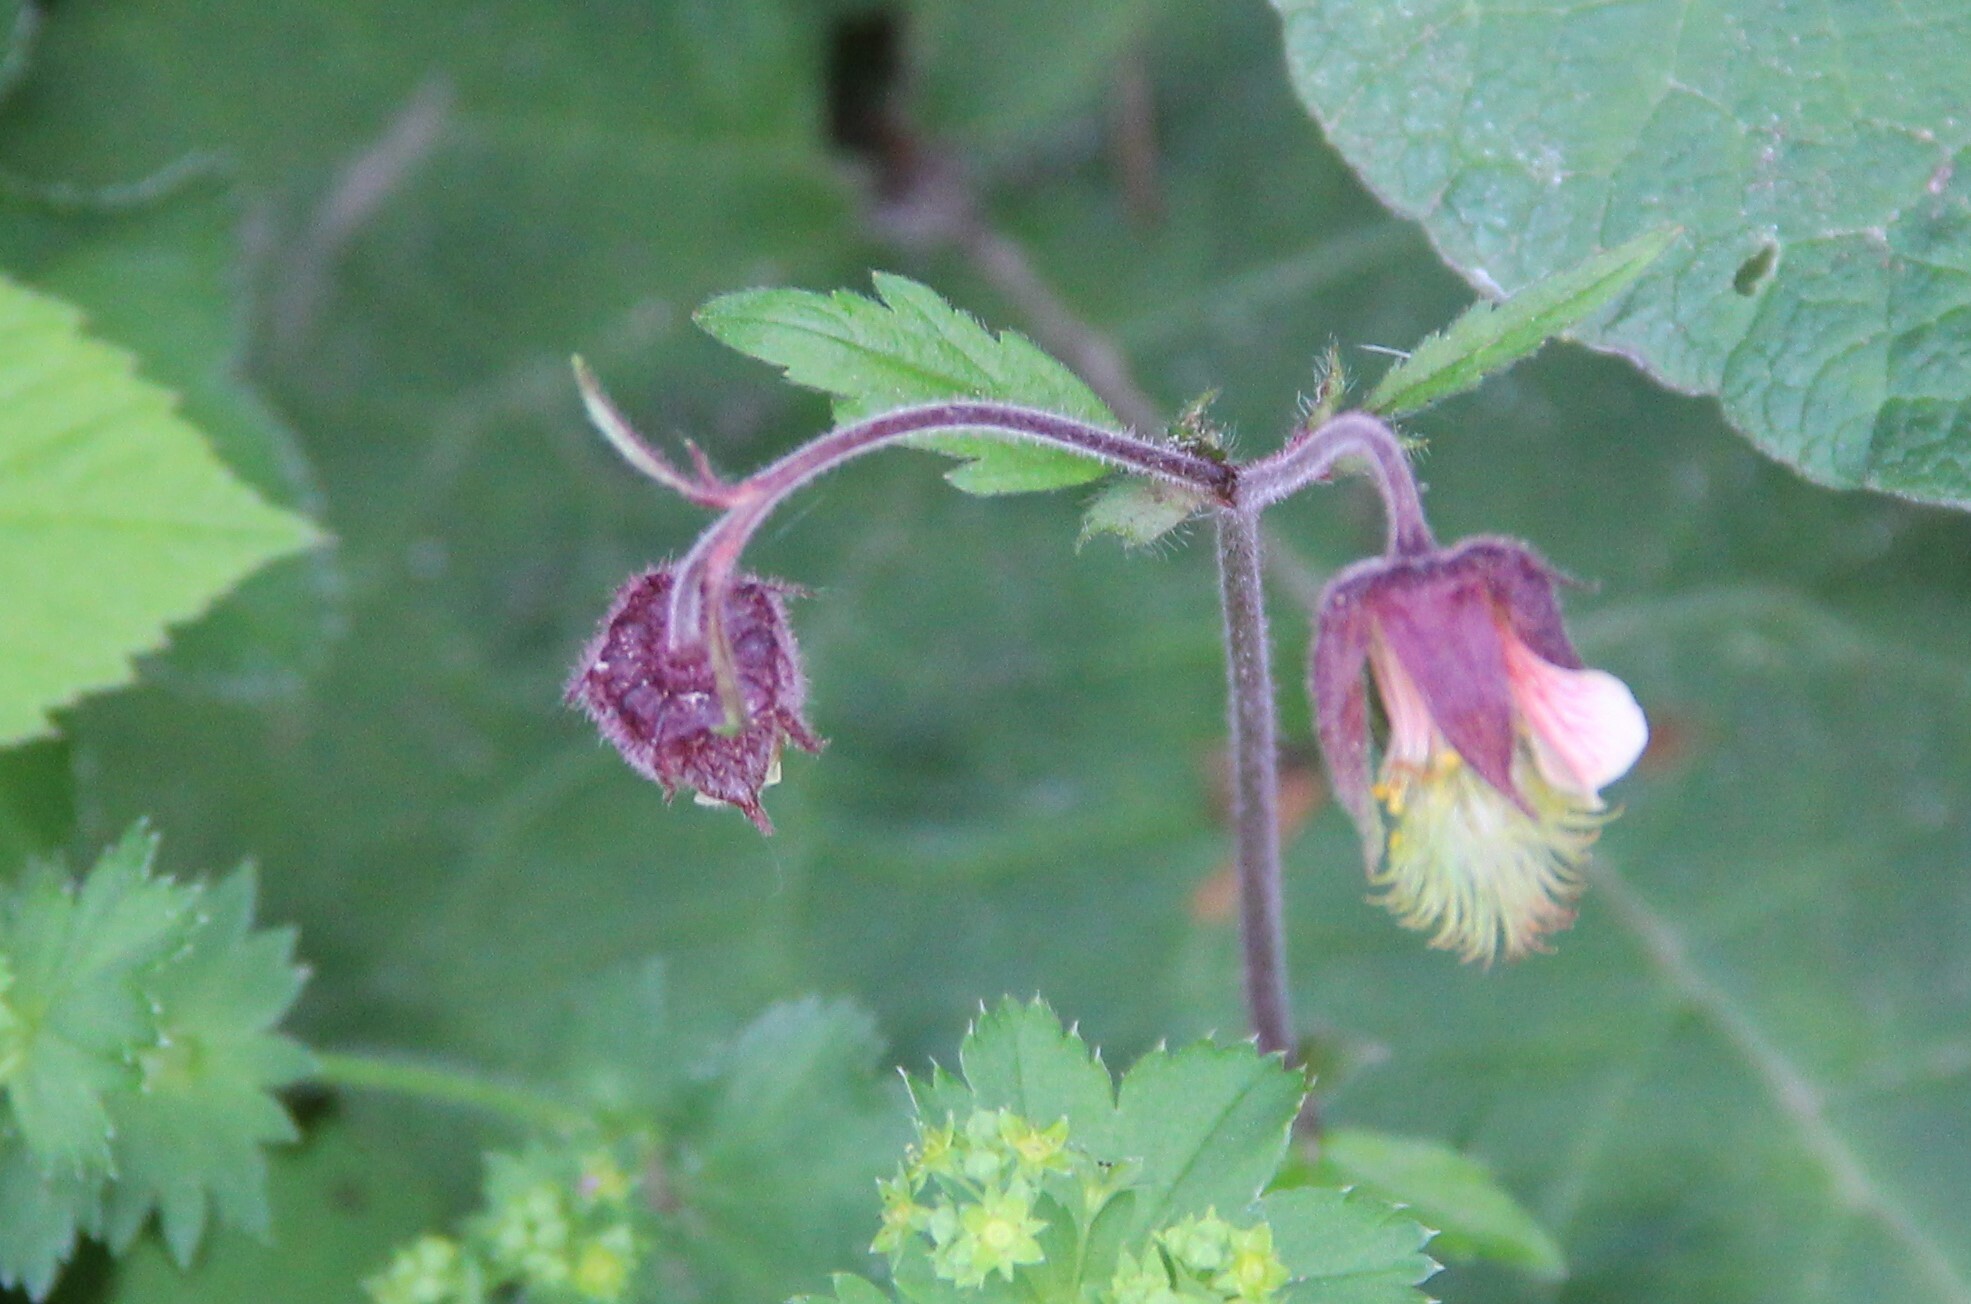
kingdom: Plantae
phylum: Tracheophyta
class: Magnoliopsida
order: Rosales
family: Rosaceae
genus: Geum
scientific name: Geum rivale
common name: Water avens
